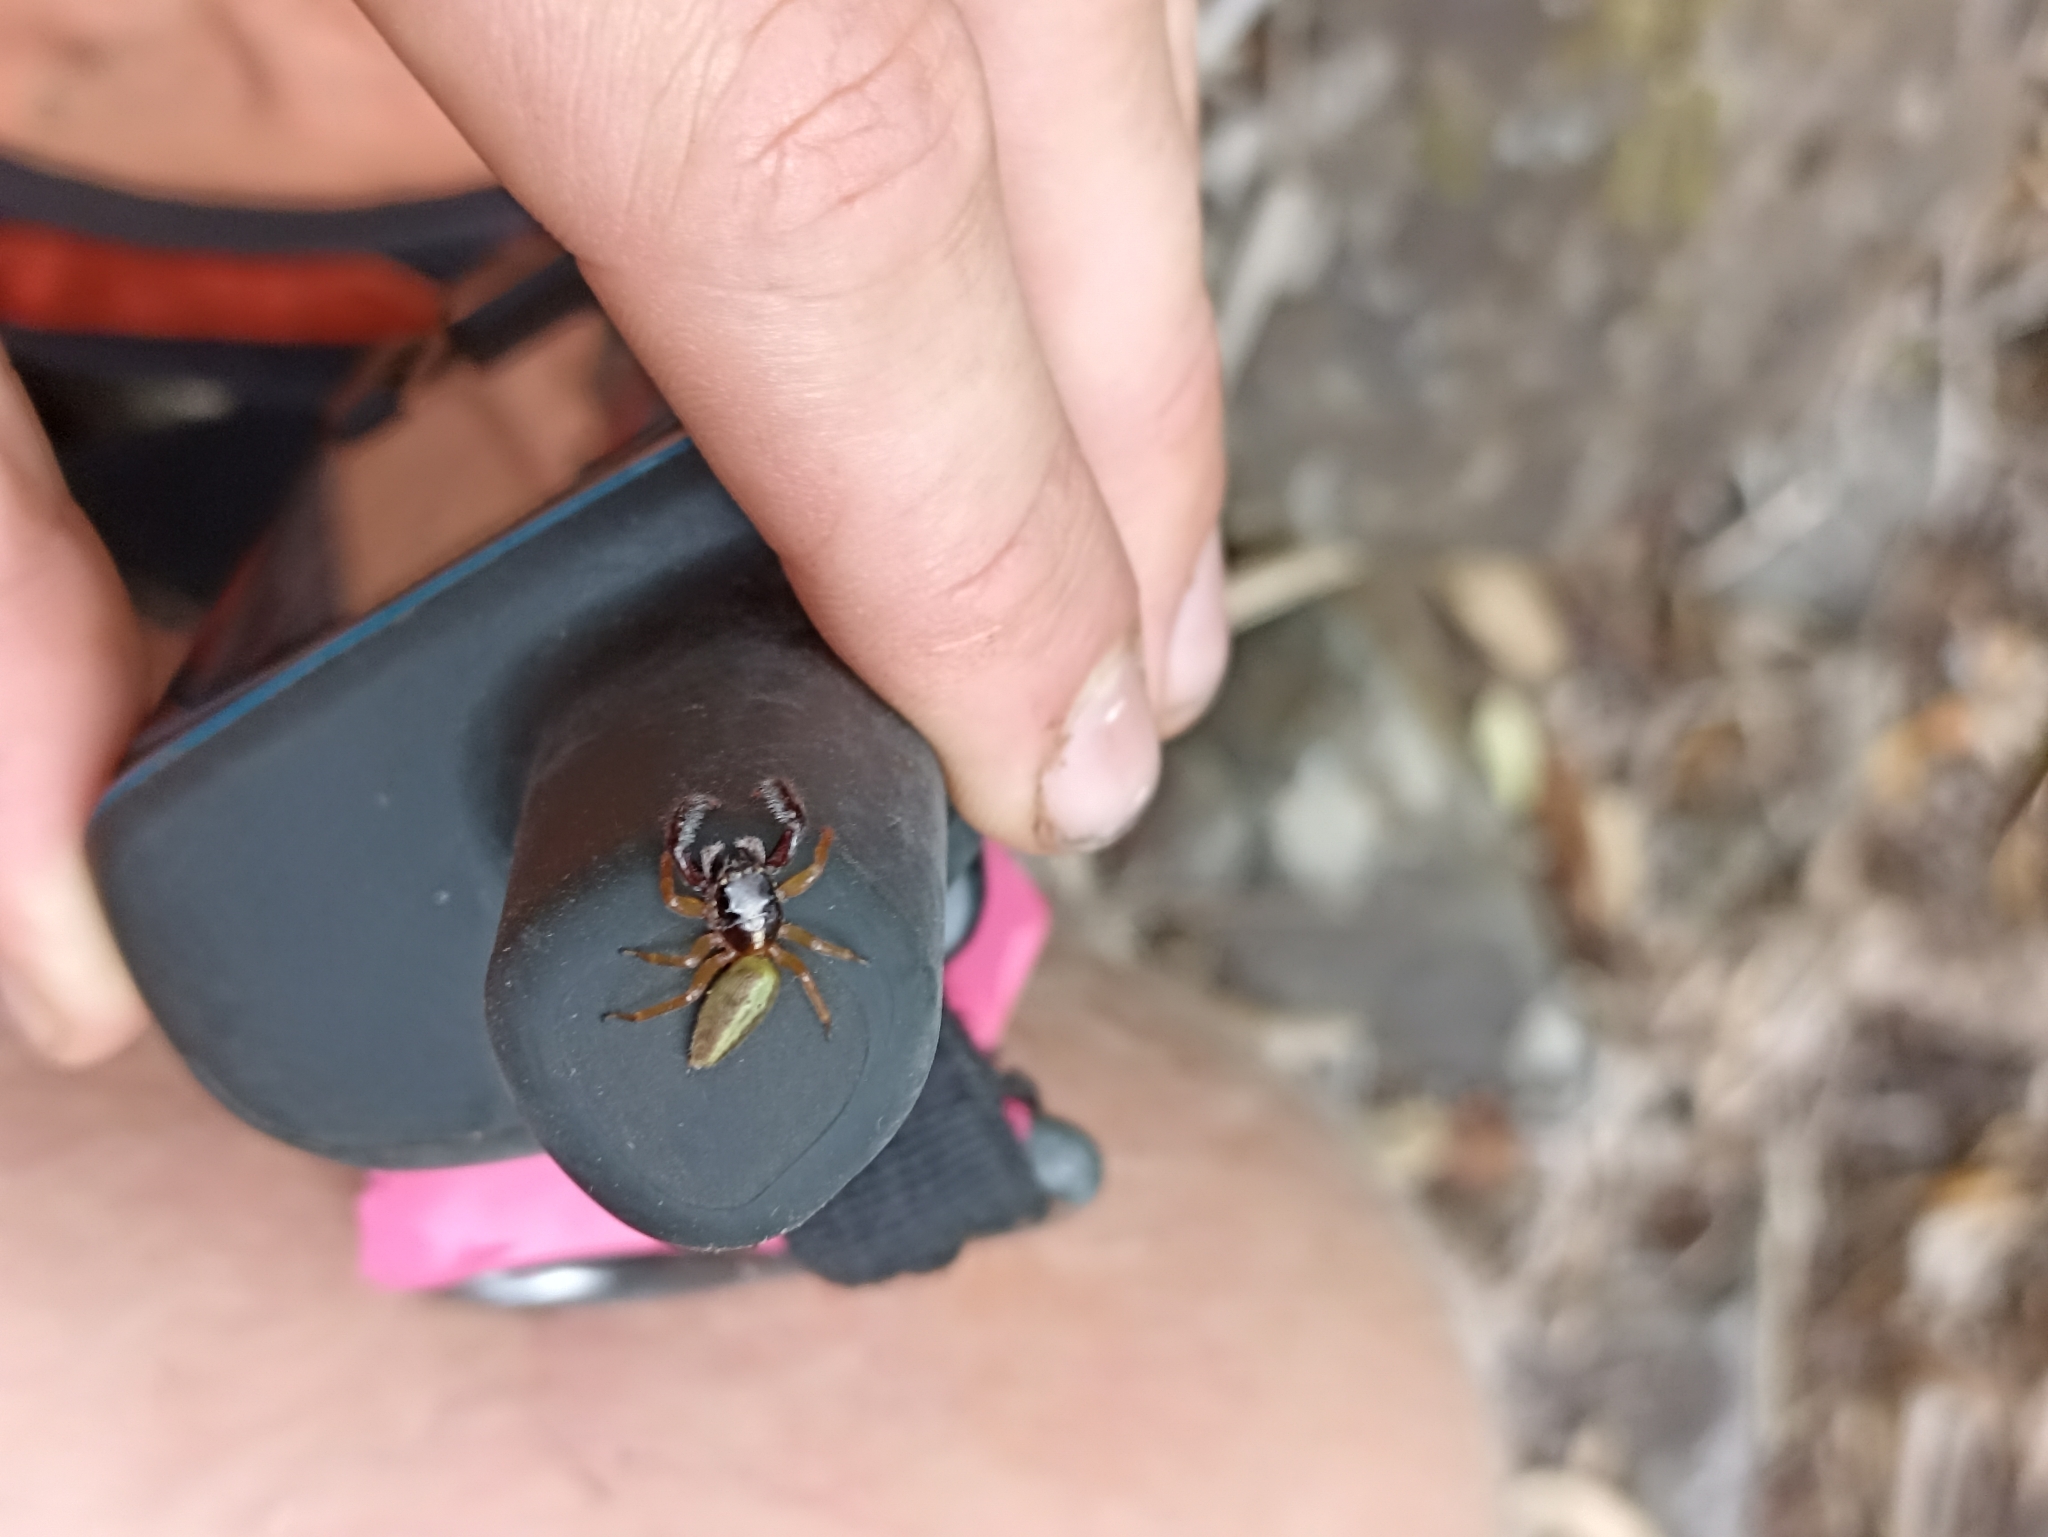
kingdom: Animalia
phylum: Arthropoda
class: Arachnida
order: Araneae
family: Salticidae
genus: Trite
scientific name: Trite planiceps
